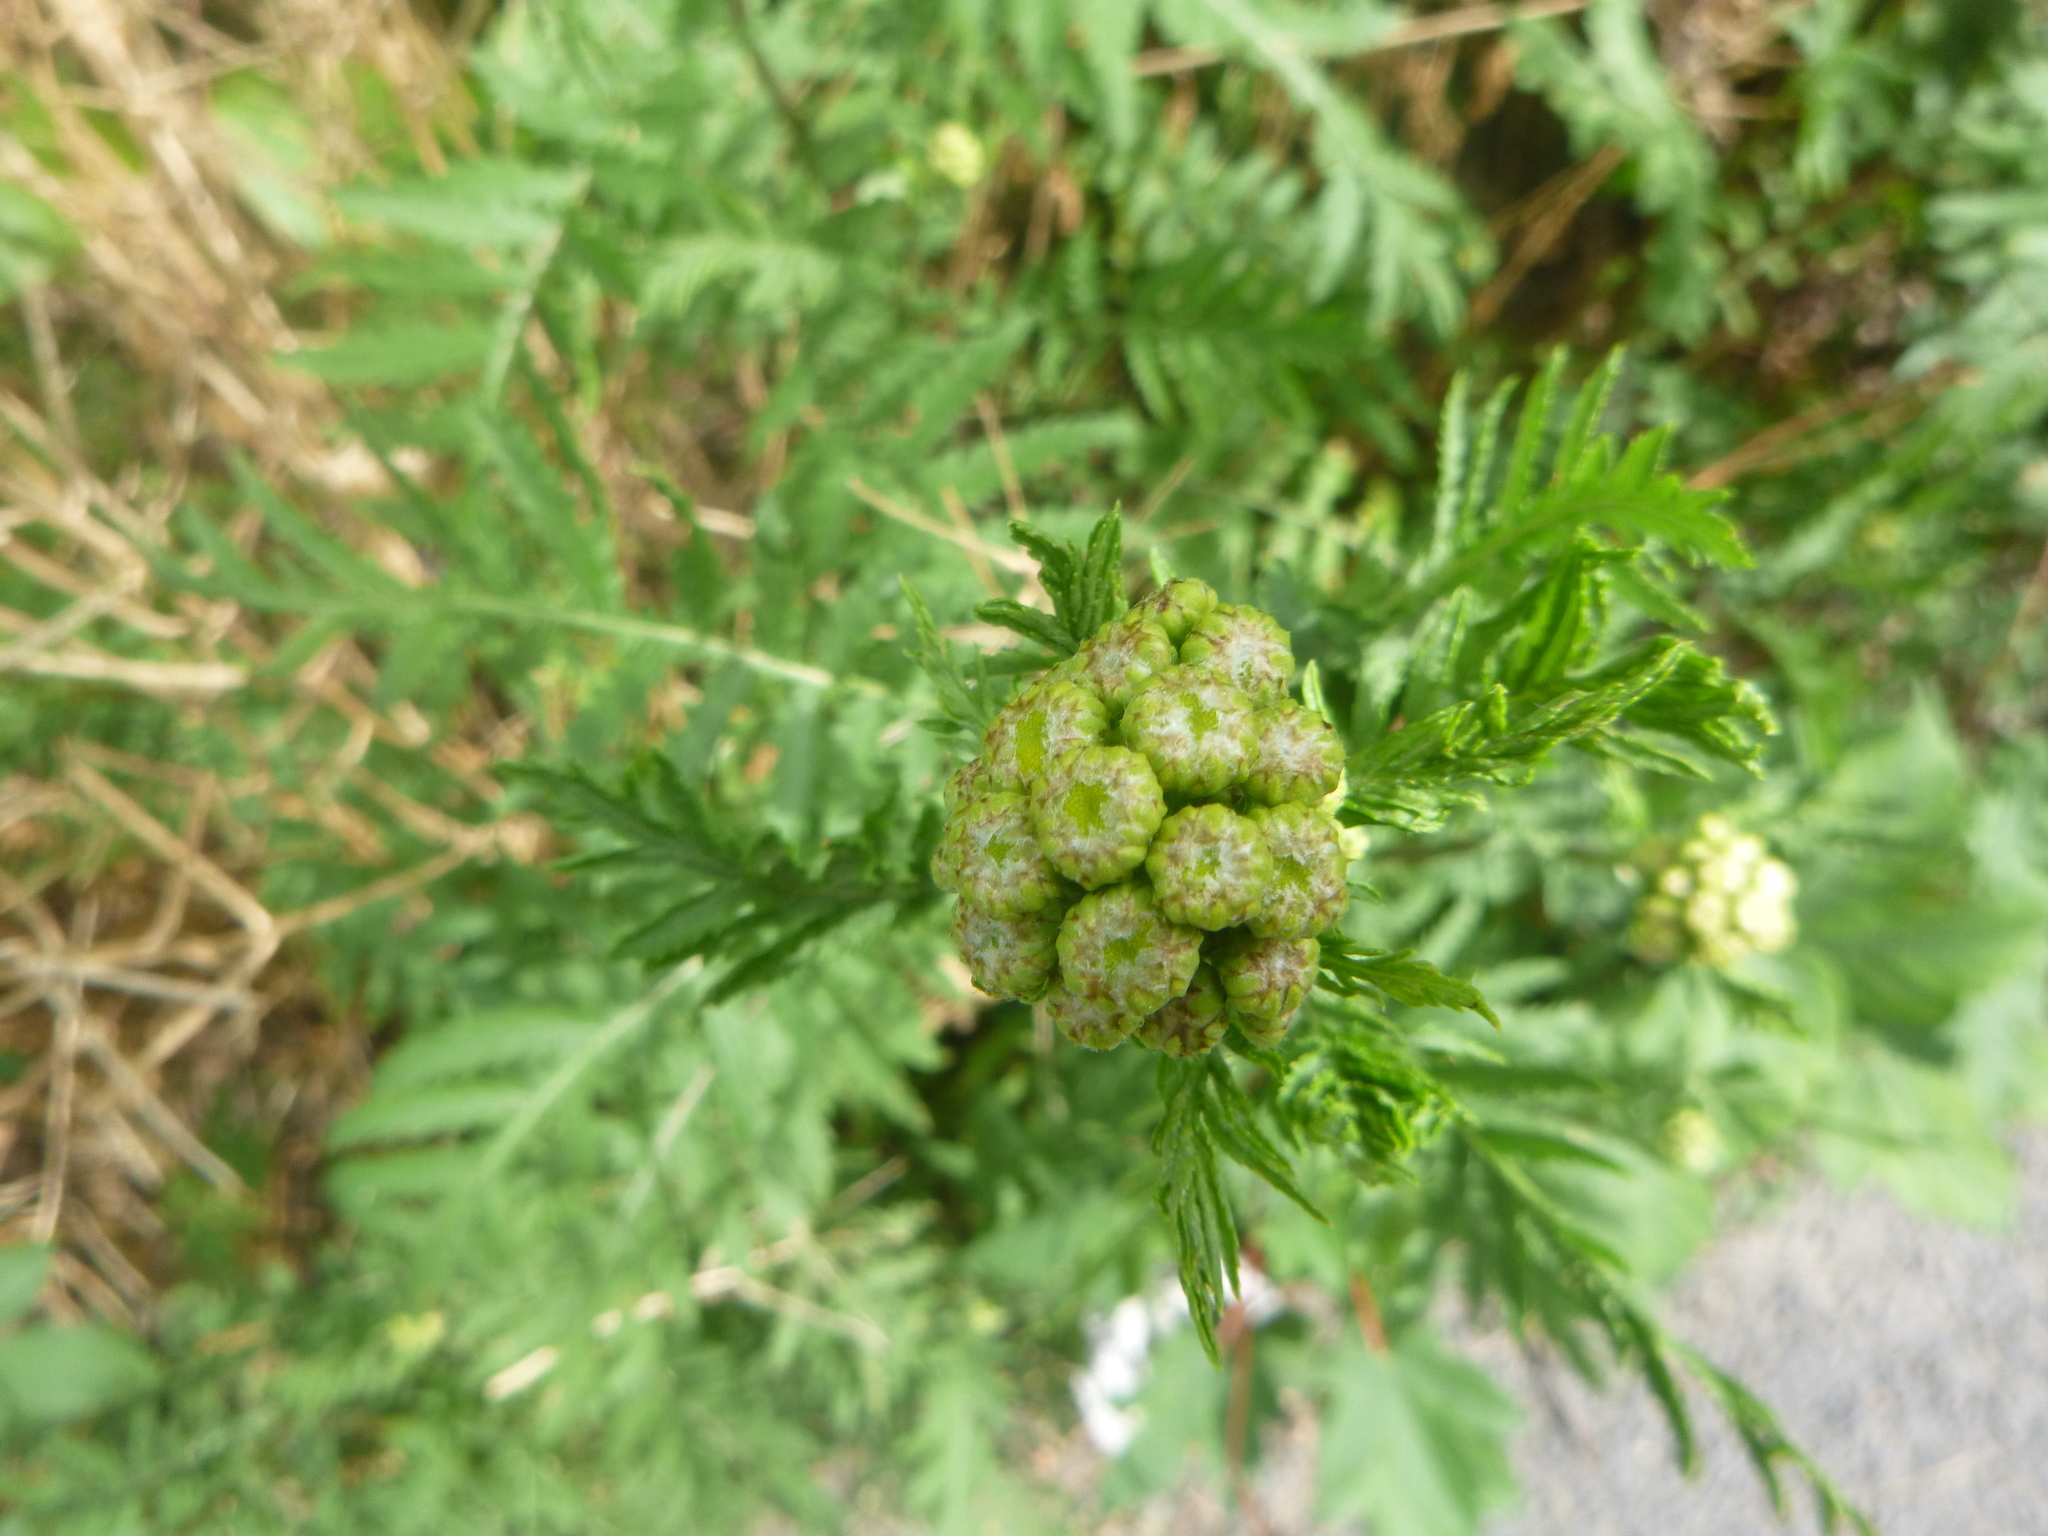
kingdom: Plantae
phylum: Tracheophyta
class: Magnoliopsida
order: Asterales
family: Asteraceae
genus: Tanacetum
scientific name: Tanacetum vulgare
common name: Common tansy
